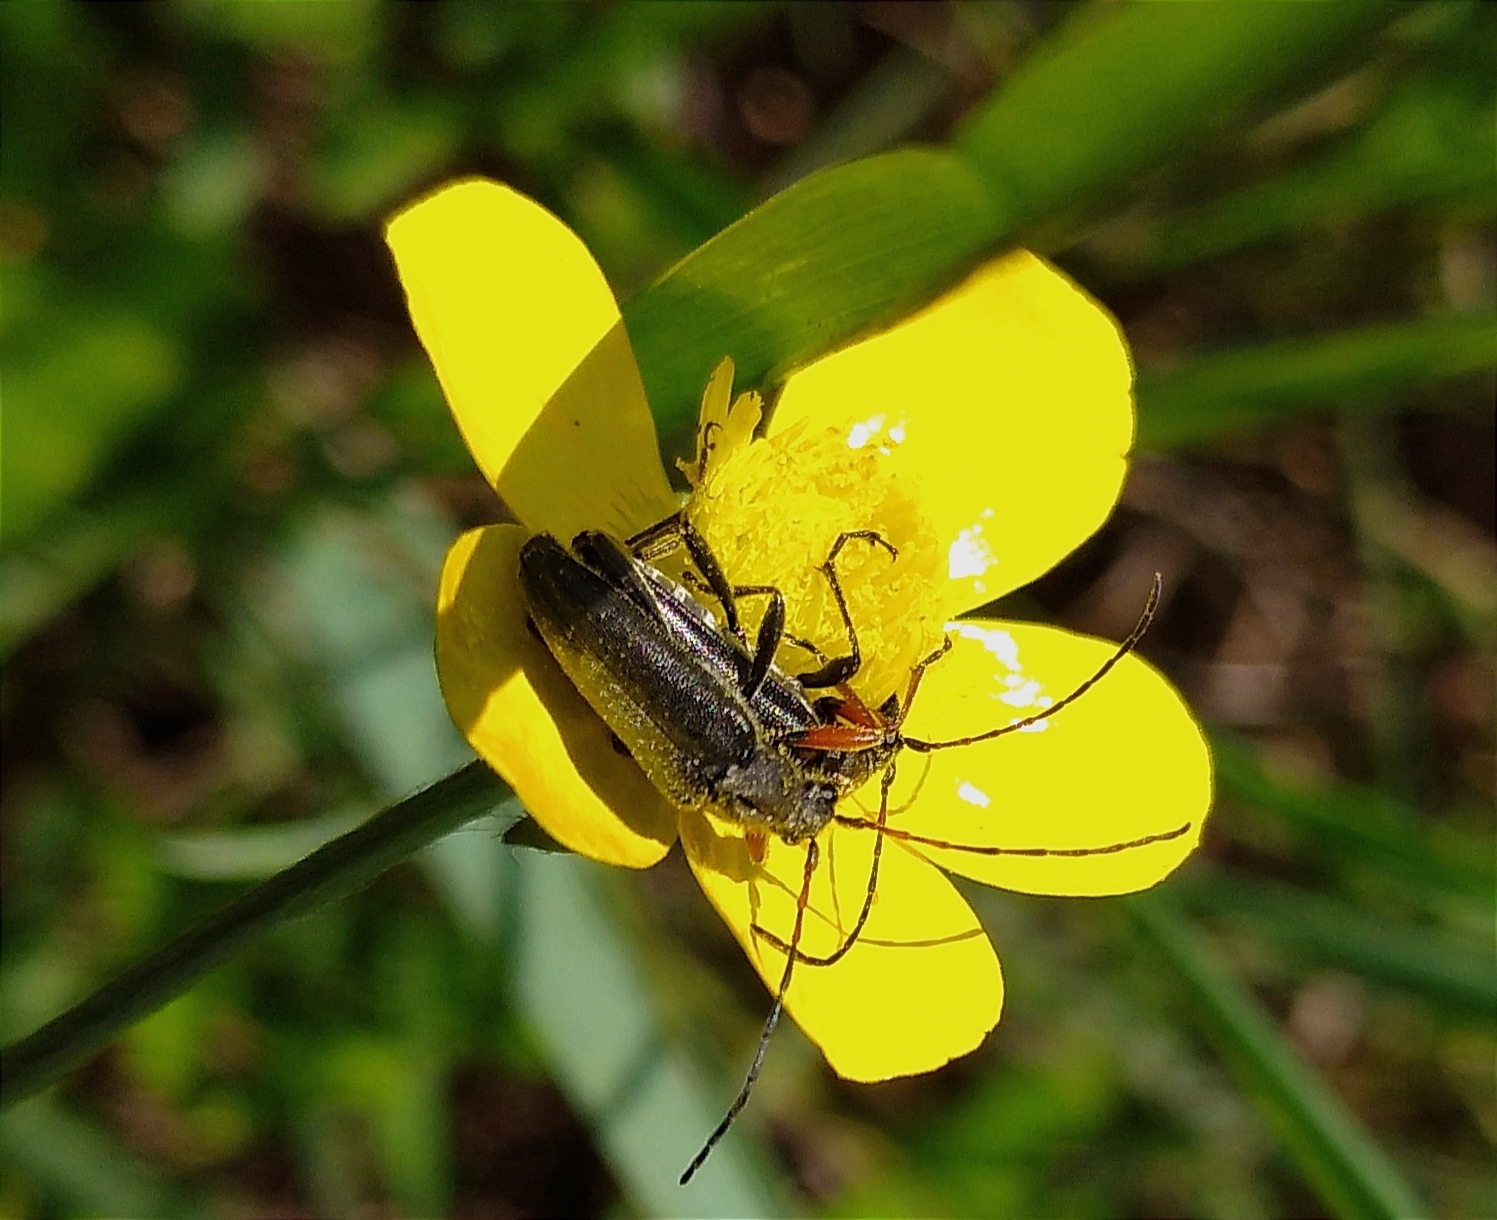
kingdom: Animalia
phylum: Arthropoda
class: Insecta
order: Coleoptera
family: Cerambycidae
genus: Cortodera
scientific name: Cortodera flavimana
